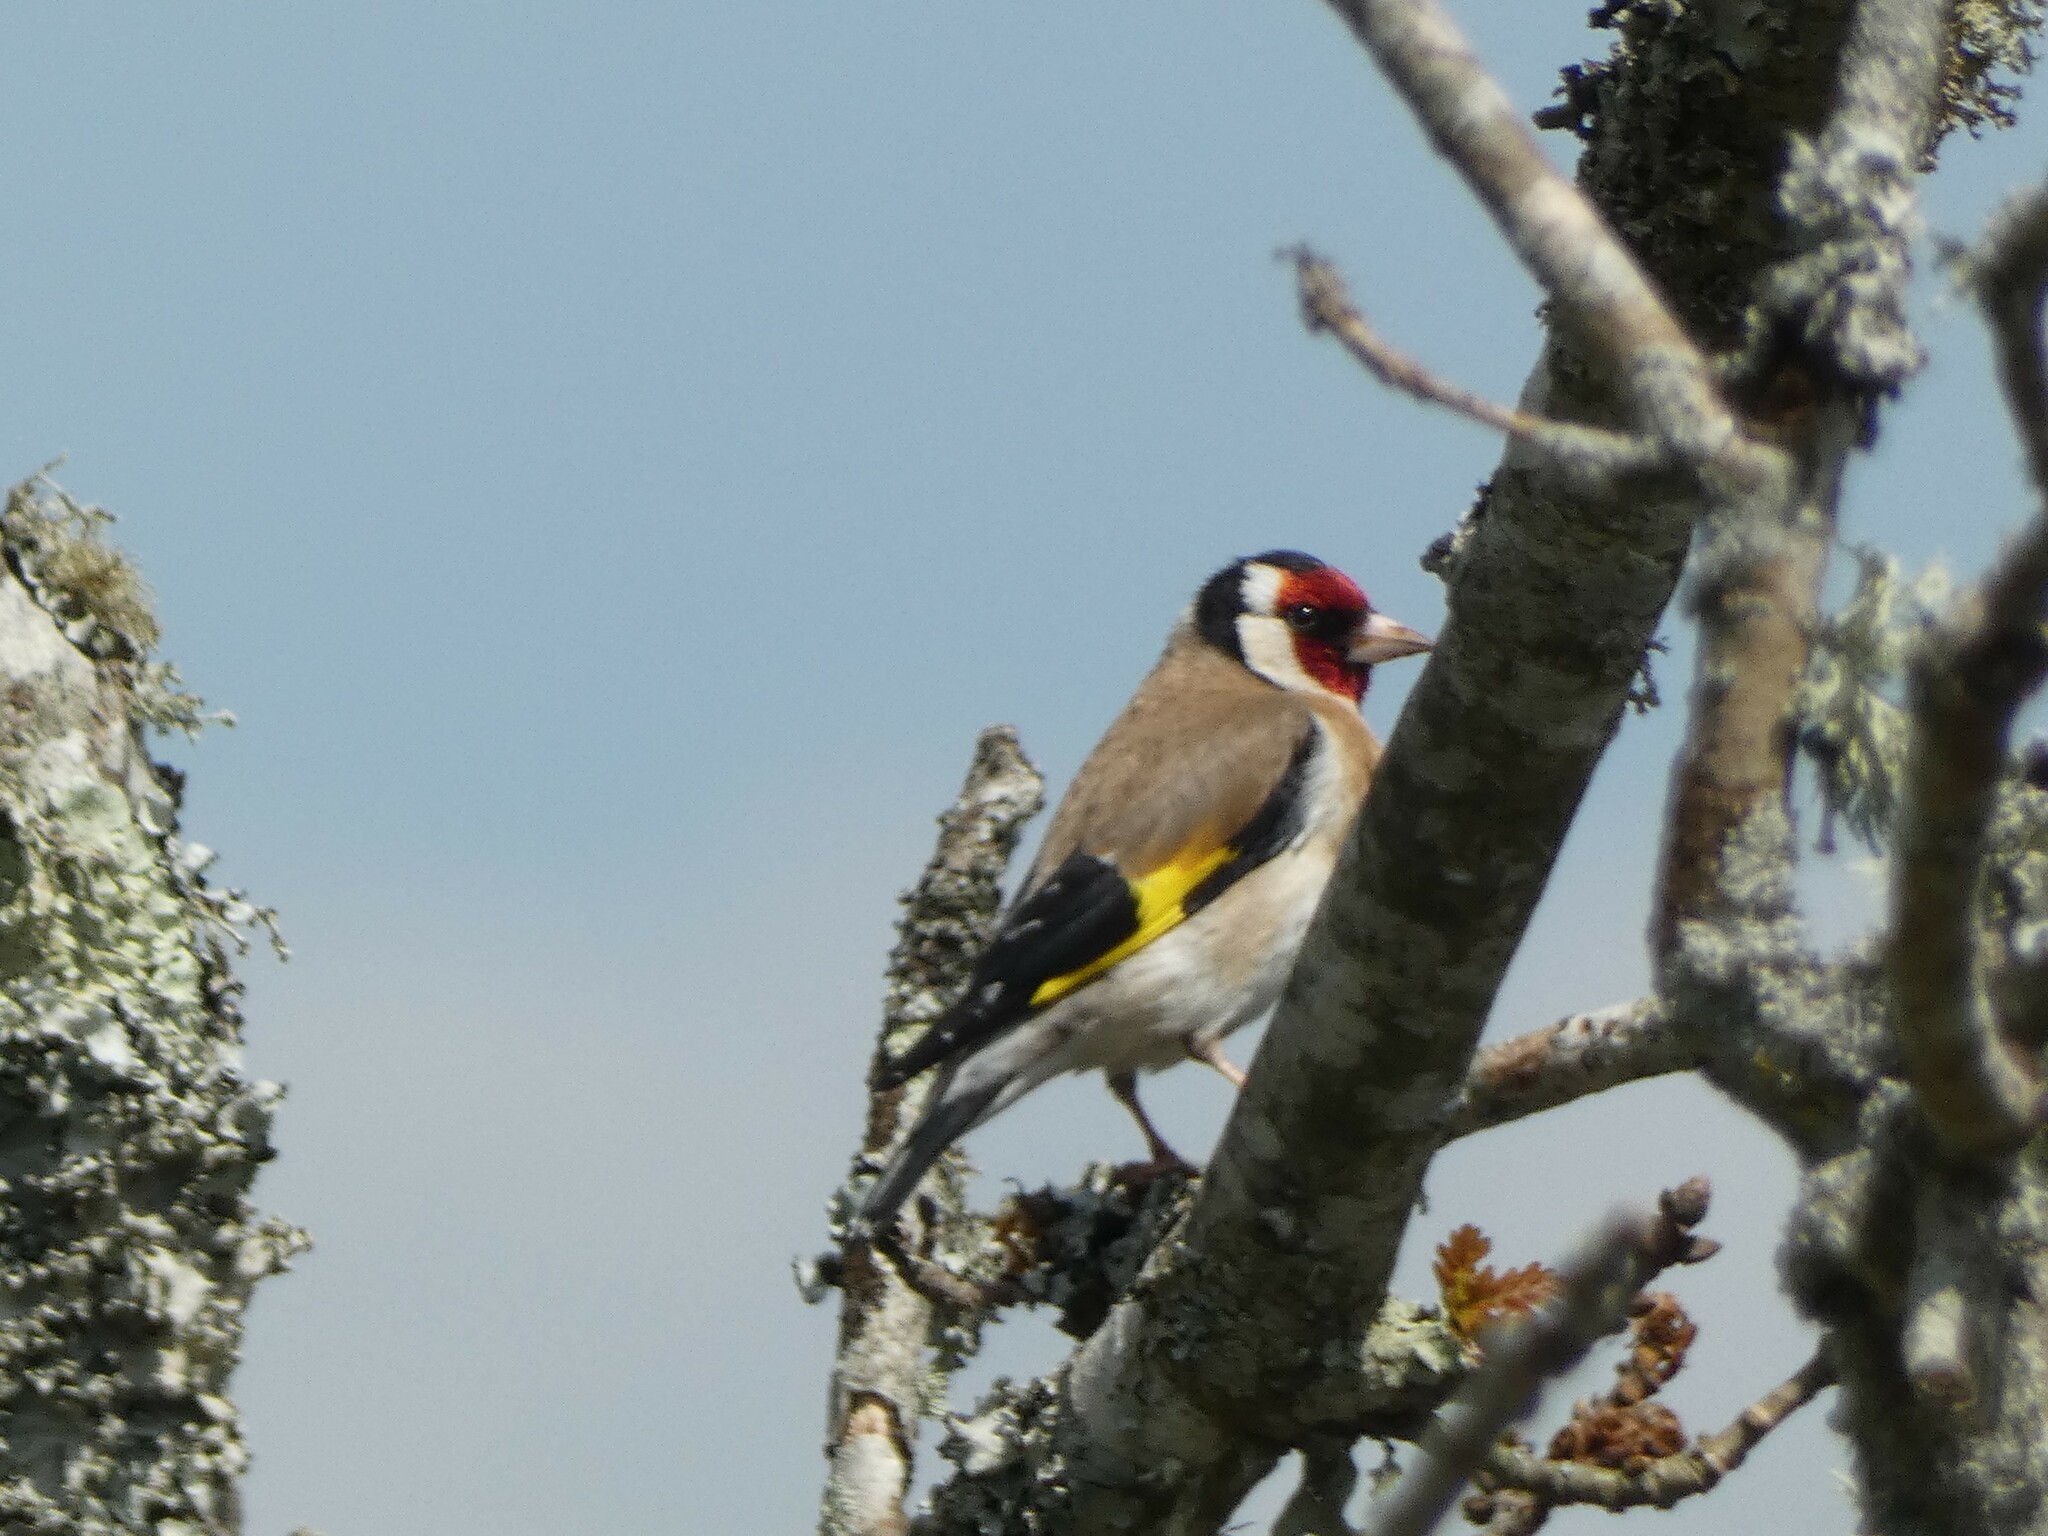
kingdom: Animalia
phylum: Chordata
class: Aves
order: Passeriformes
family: Fringillidae
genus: Carduelis
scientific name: Carduelis carduelis
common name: European goldfinch
